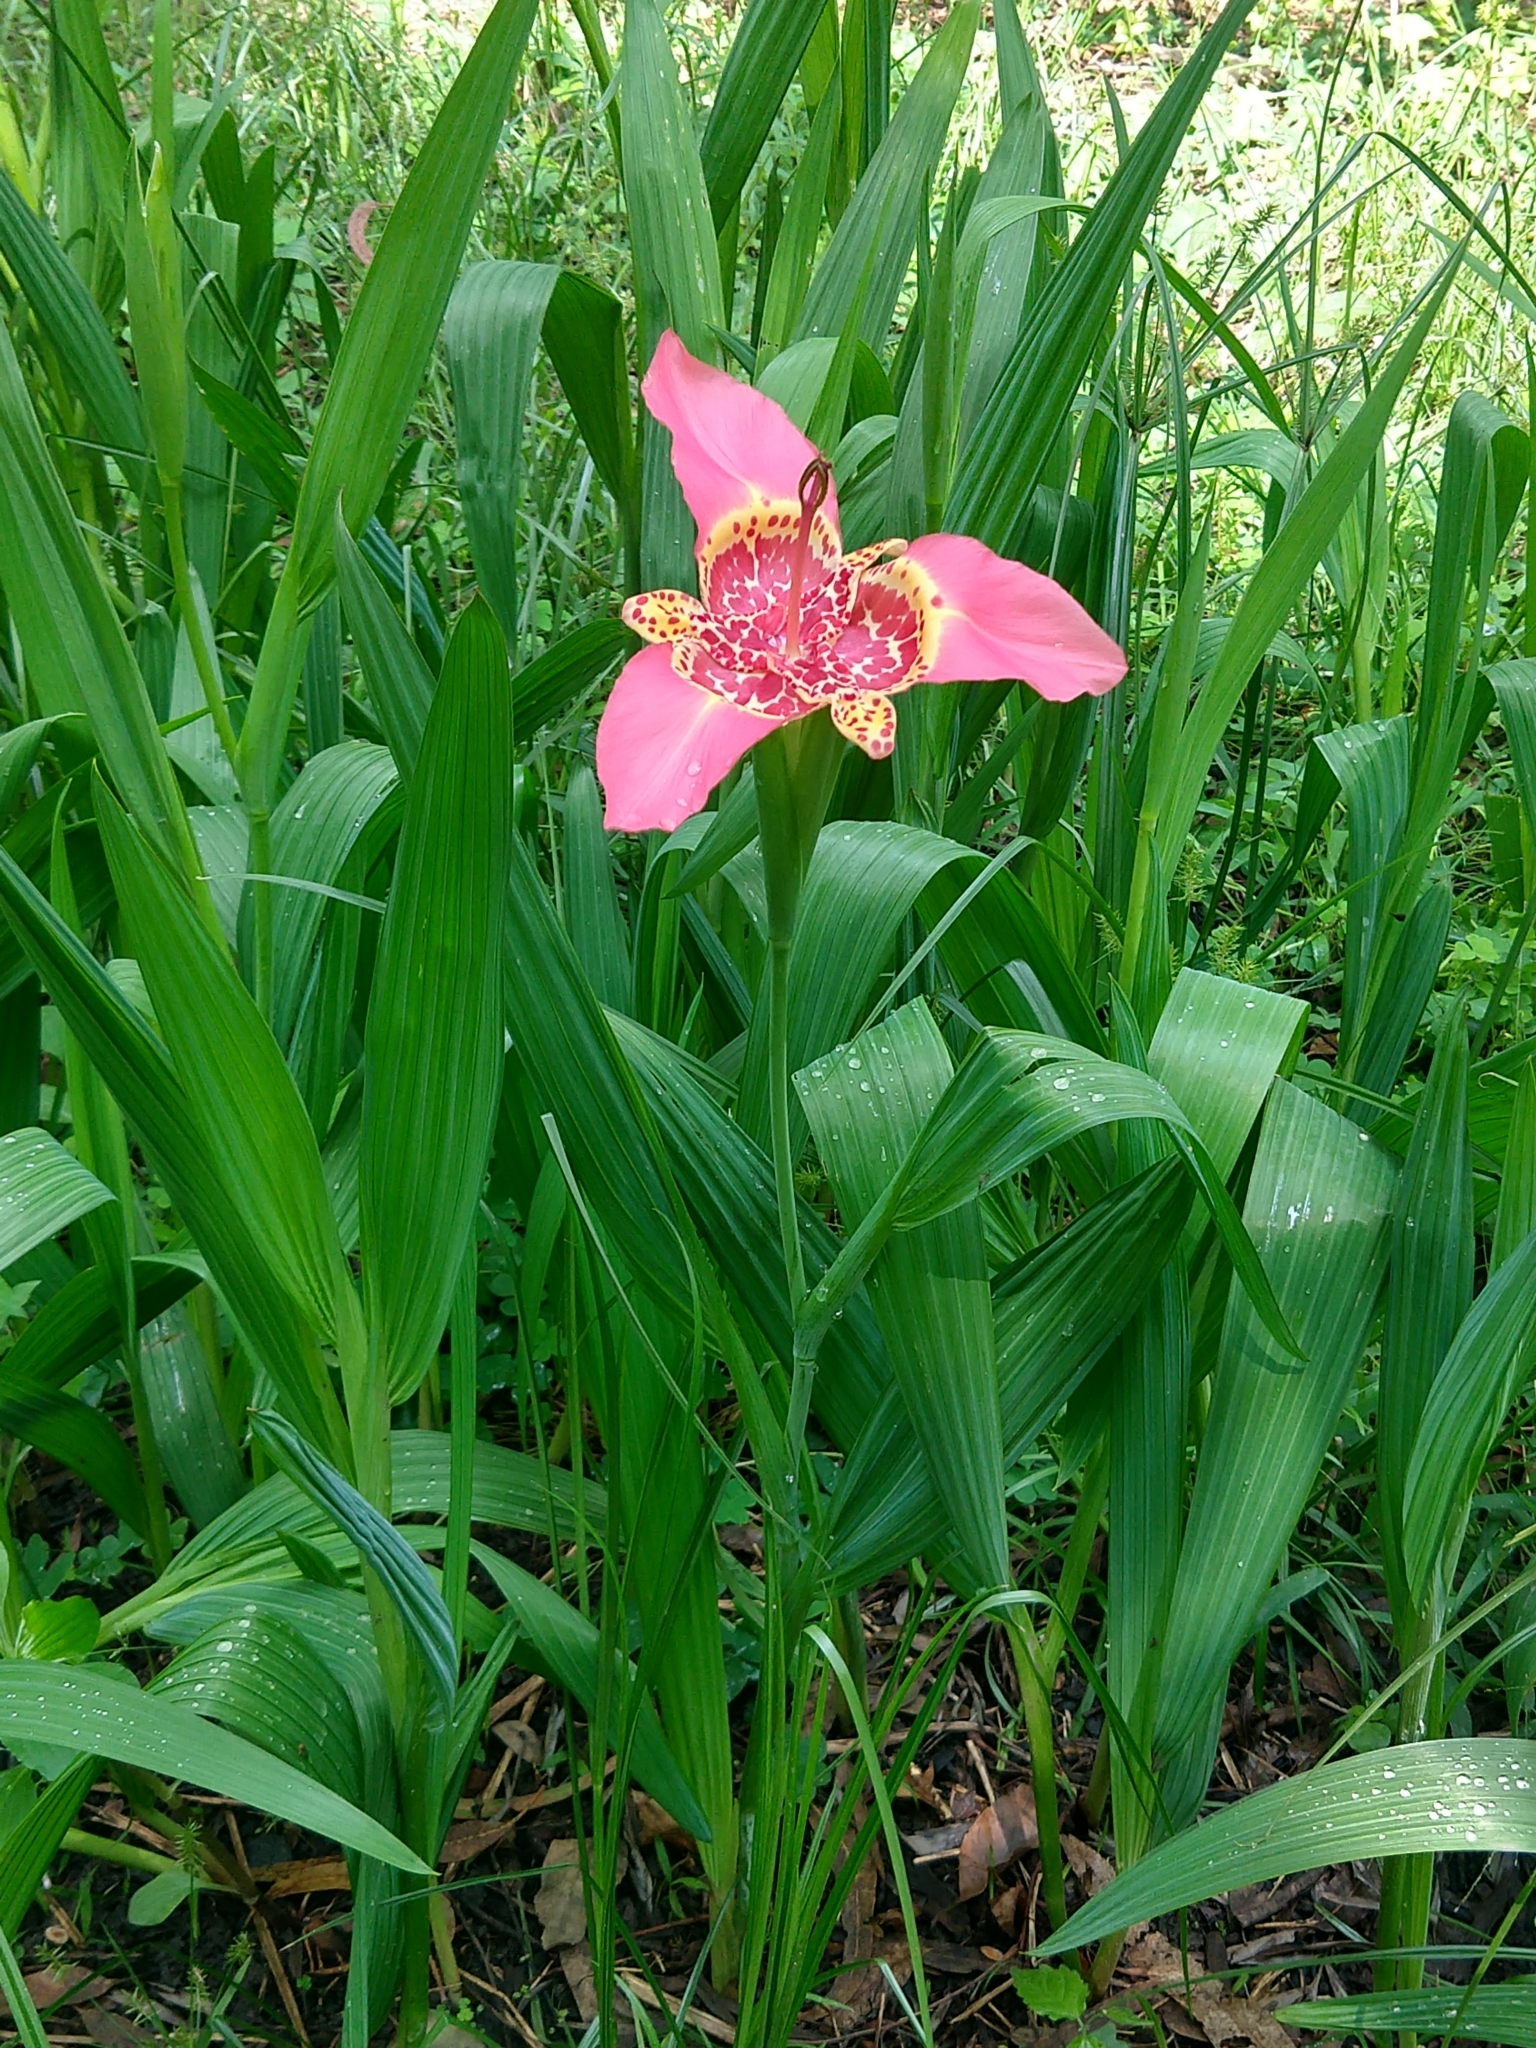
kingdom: Plantae
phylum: Tracheophyta
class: Liliopsida
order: Asparagales
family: Iridaceae
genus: Tigridia
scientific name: Tigridia pavonia
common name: Peacock-flower
